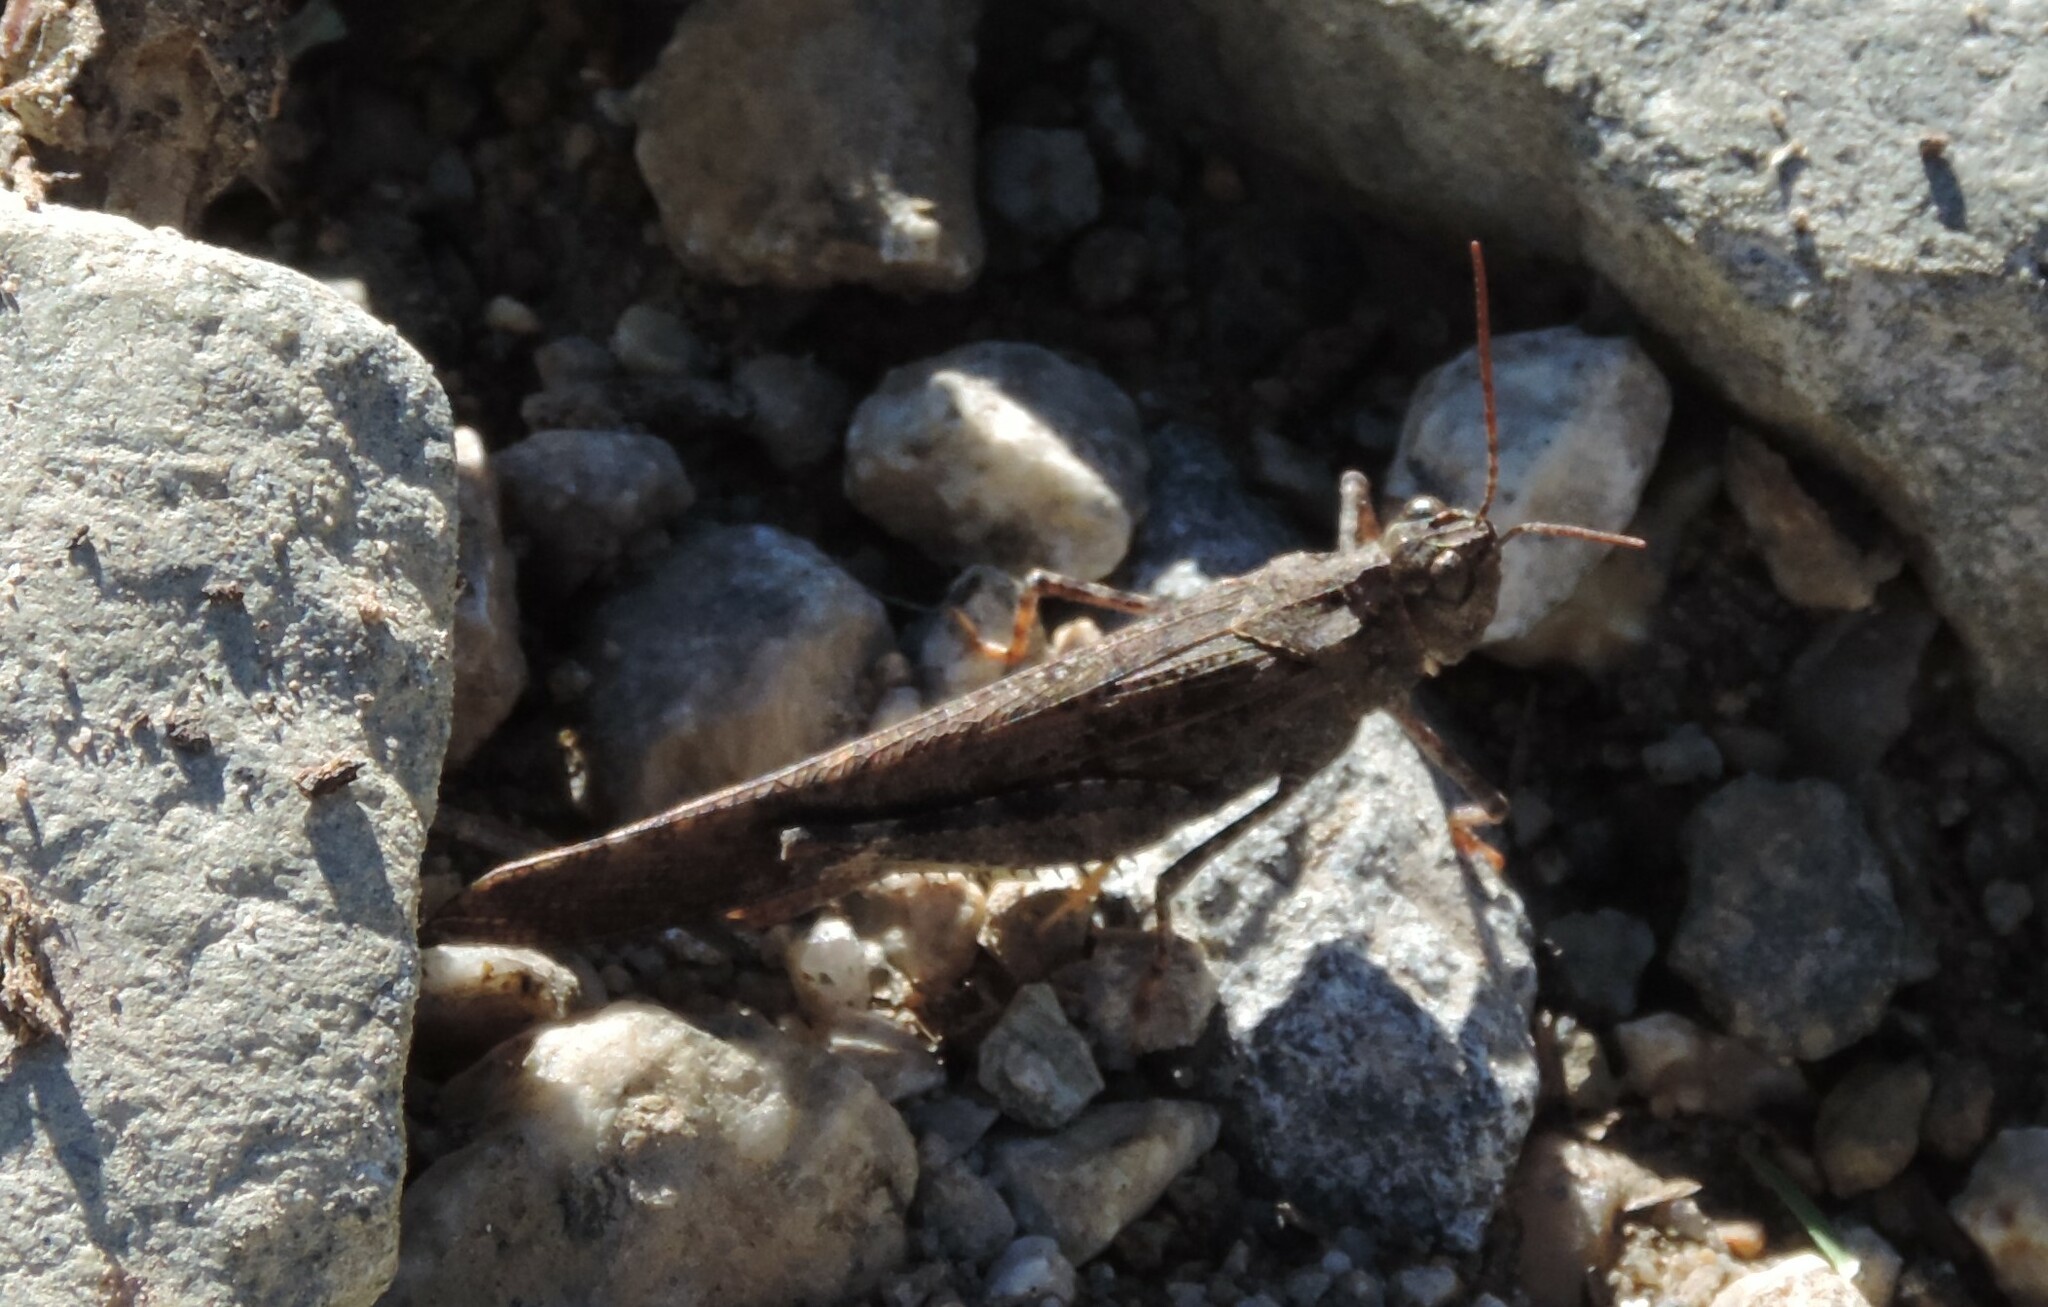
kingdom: Animalia
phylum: Arthropoda
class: Insecta
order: Orthoptera
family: Acrididae
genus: Trimerotropis
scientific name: Trimerotropis verruculata
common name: Crackling forest grasshopper
